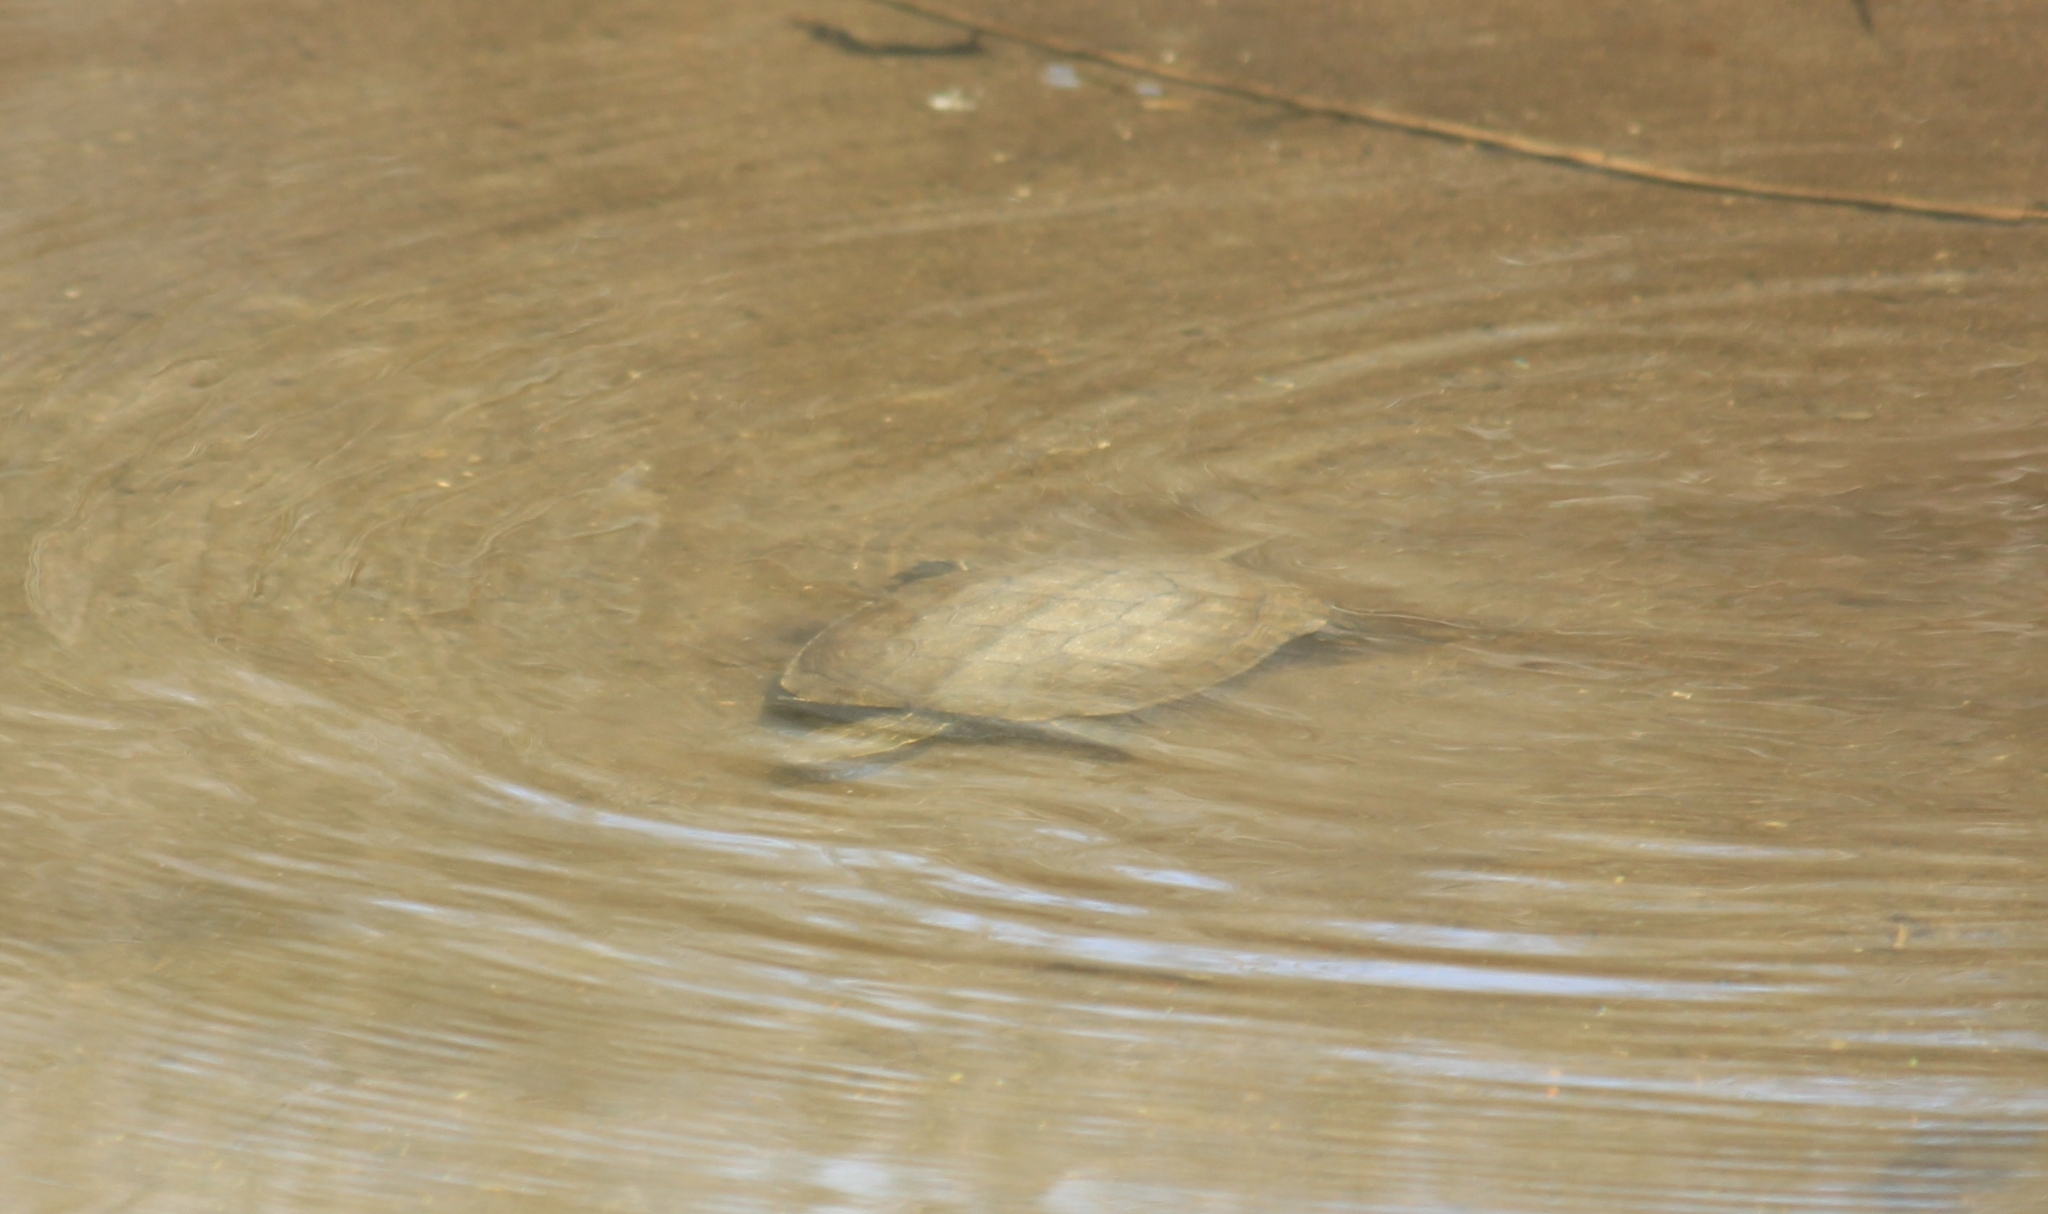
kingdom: Animalia
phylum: Chordata
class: Testudines
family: Geoemydidae
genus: Mauremys
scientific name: Mauremys rivulata
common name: Western caspian turtle
